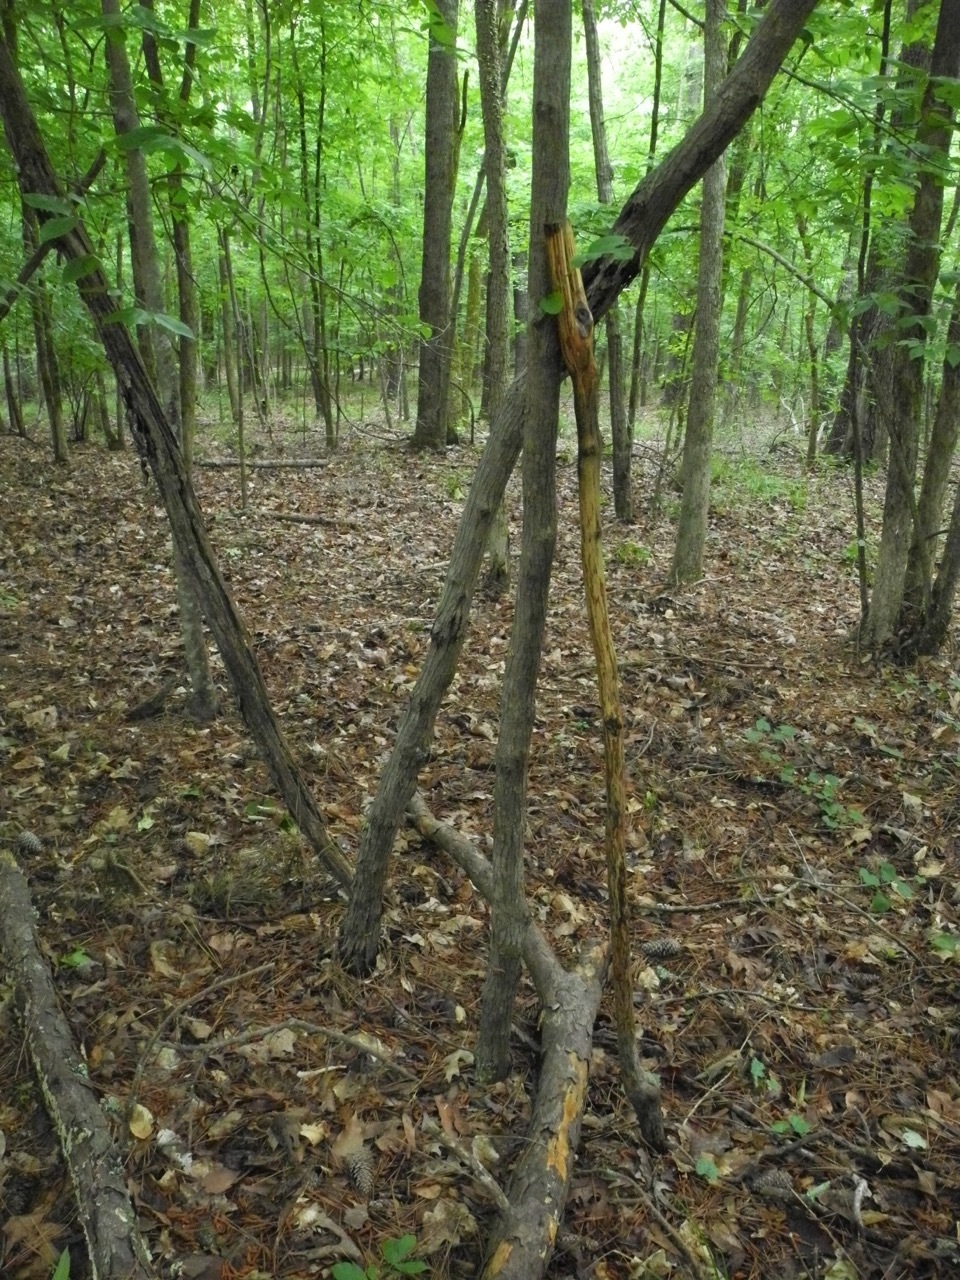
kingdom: Plantae
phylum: Tracheophyta
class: Magnoliopsida
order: Rosales
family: Moraceae
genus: Morus
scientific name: Morus rubra
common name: Red mulberry
